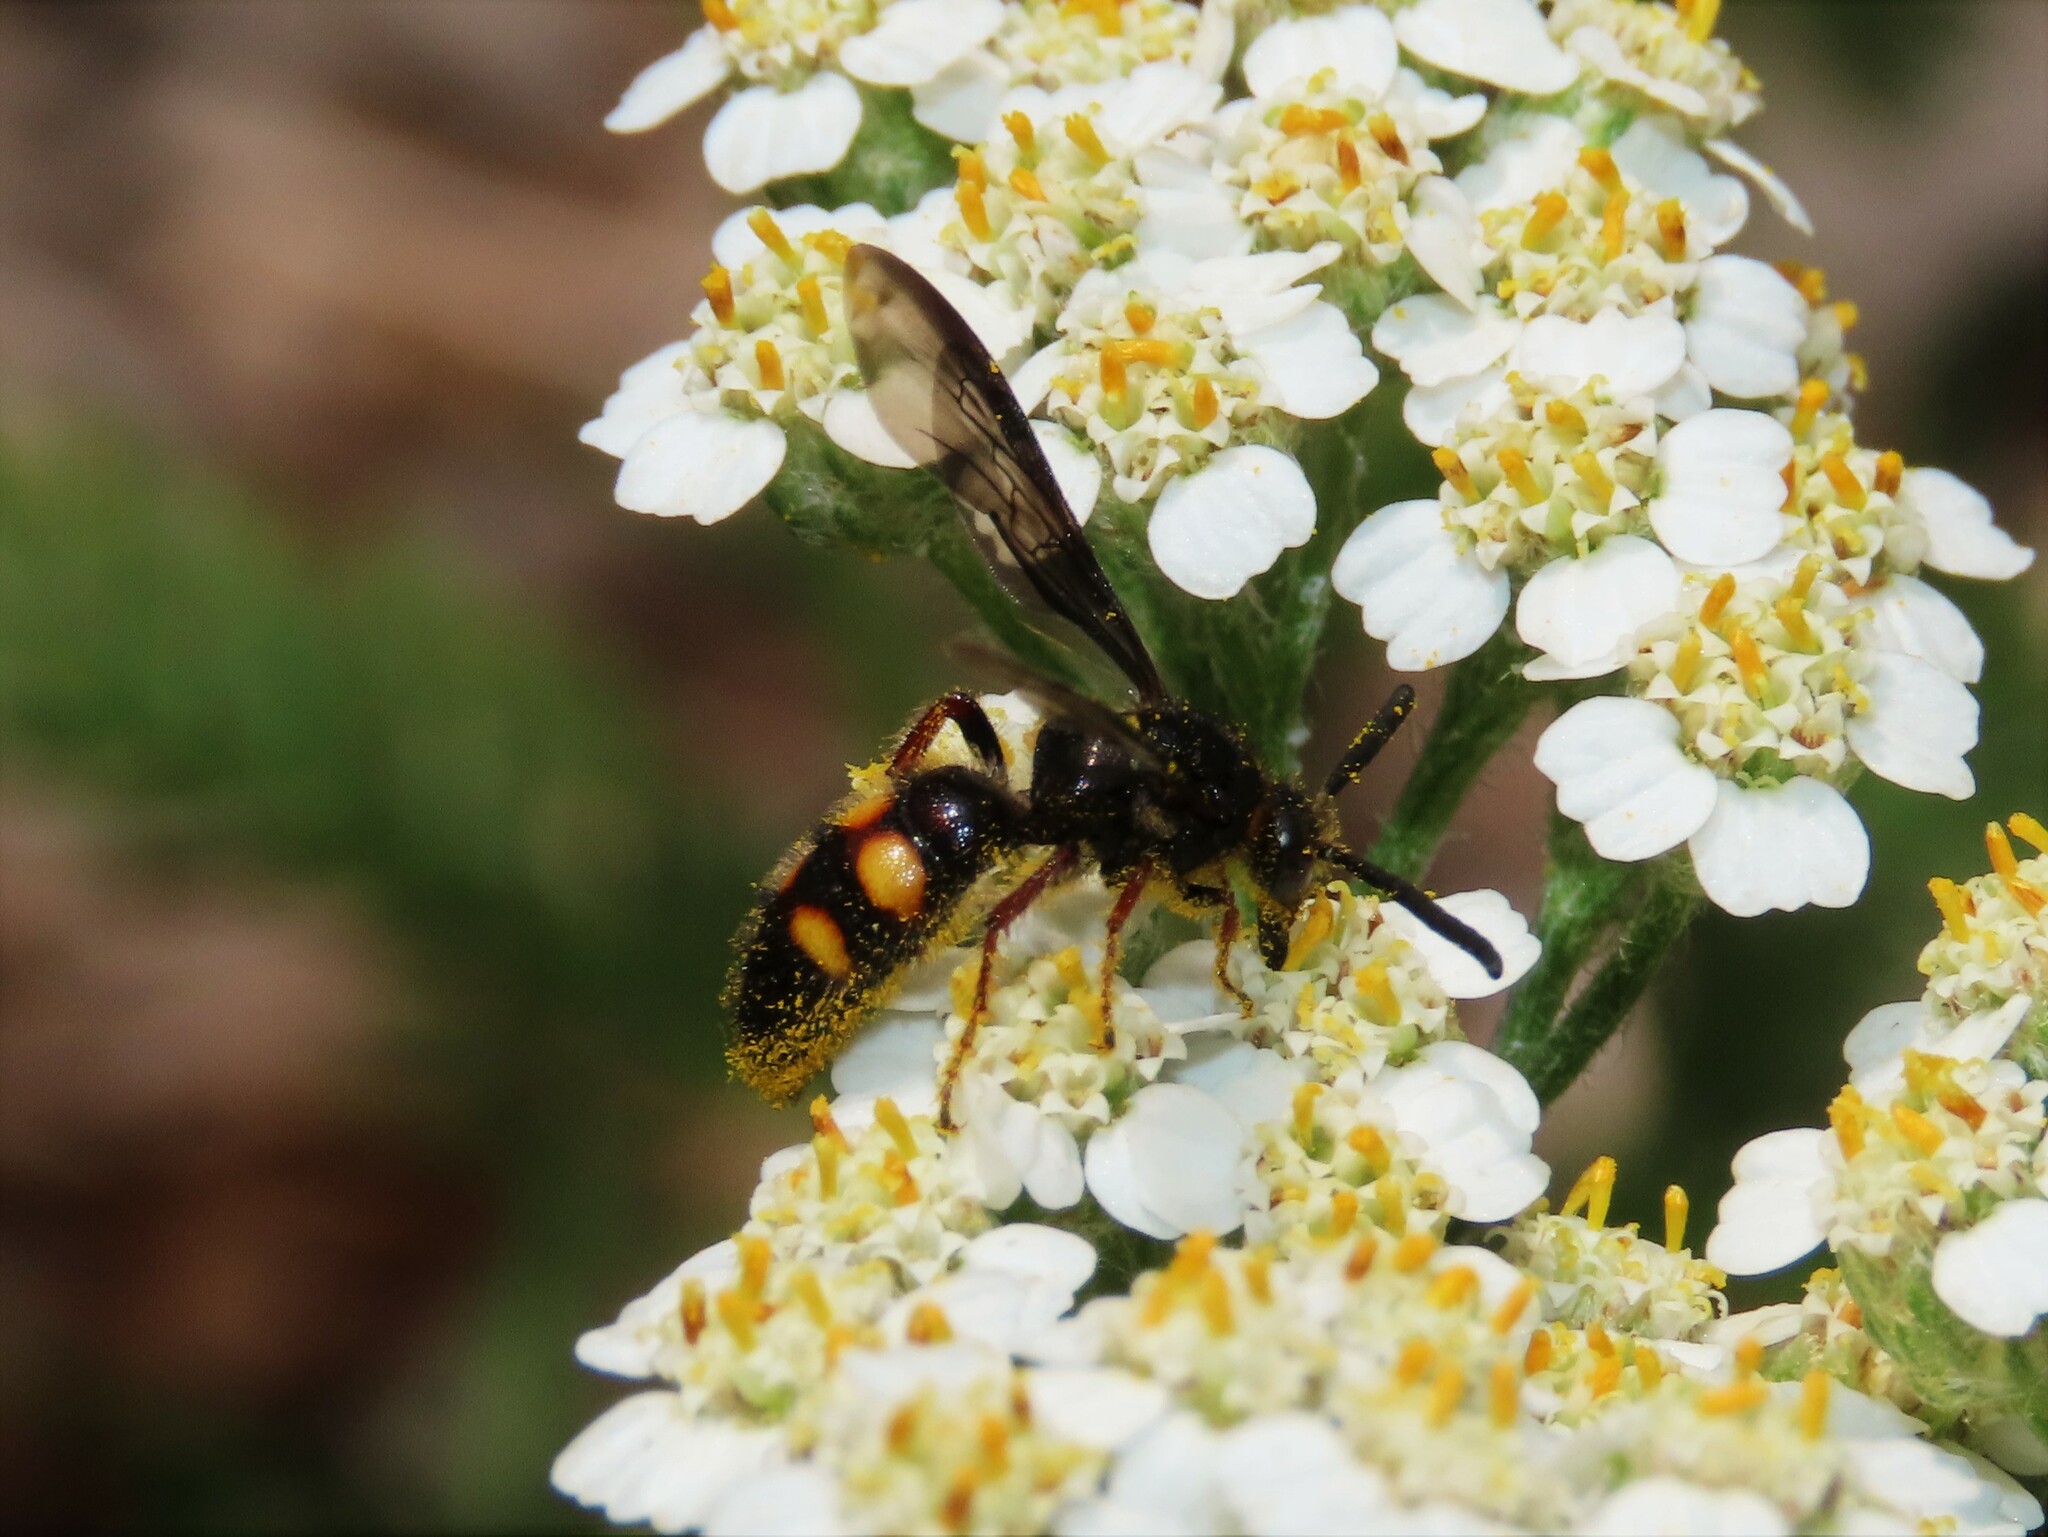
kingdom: Animalia
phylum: Arthropoda
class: Insecta
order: Hymenoptera
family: Scoliidae
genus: Scolia
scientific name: Scolia nobilitata
